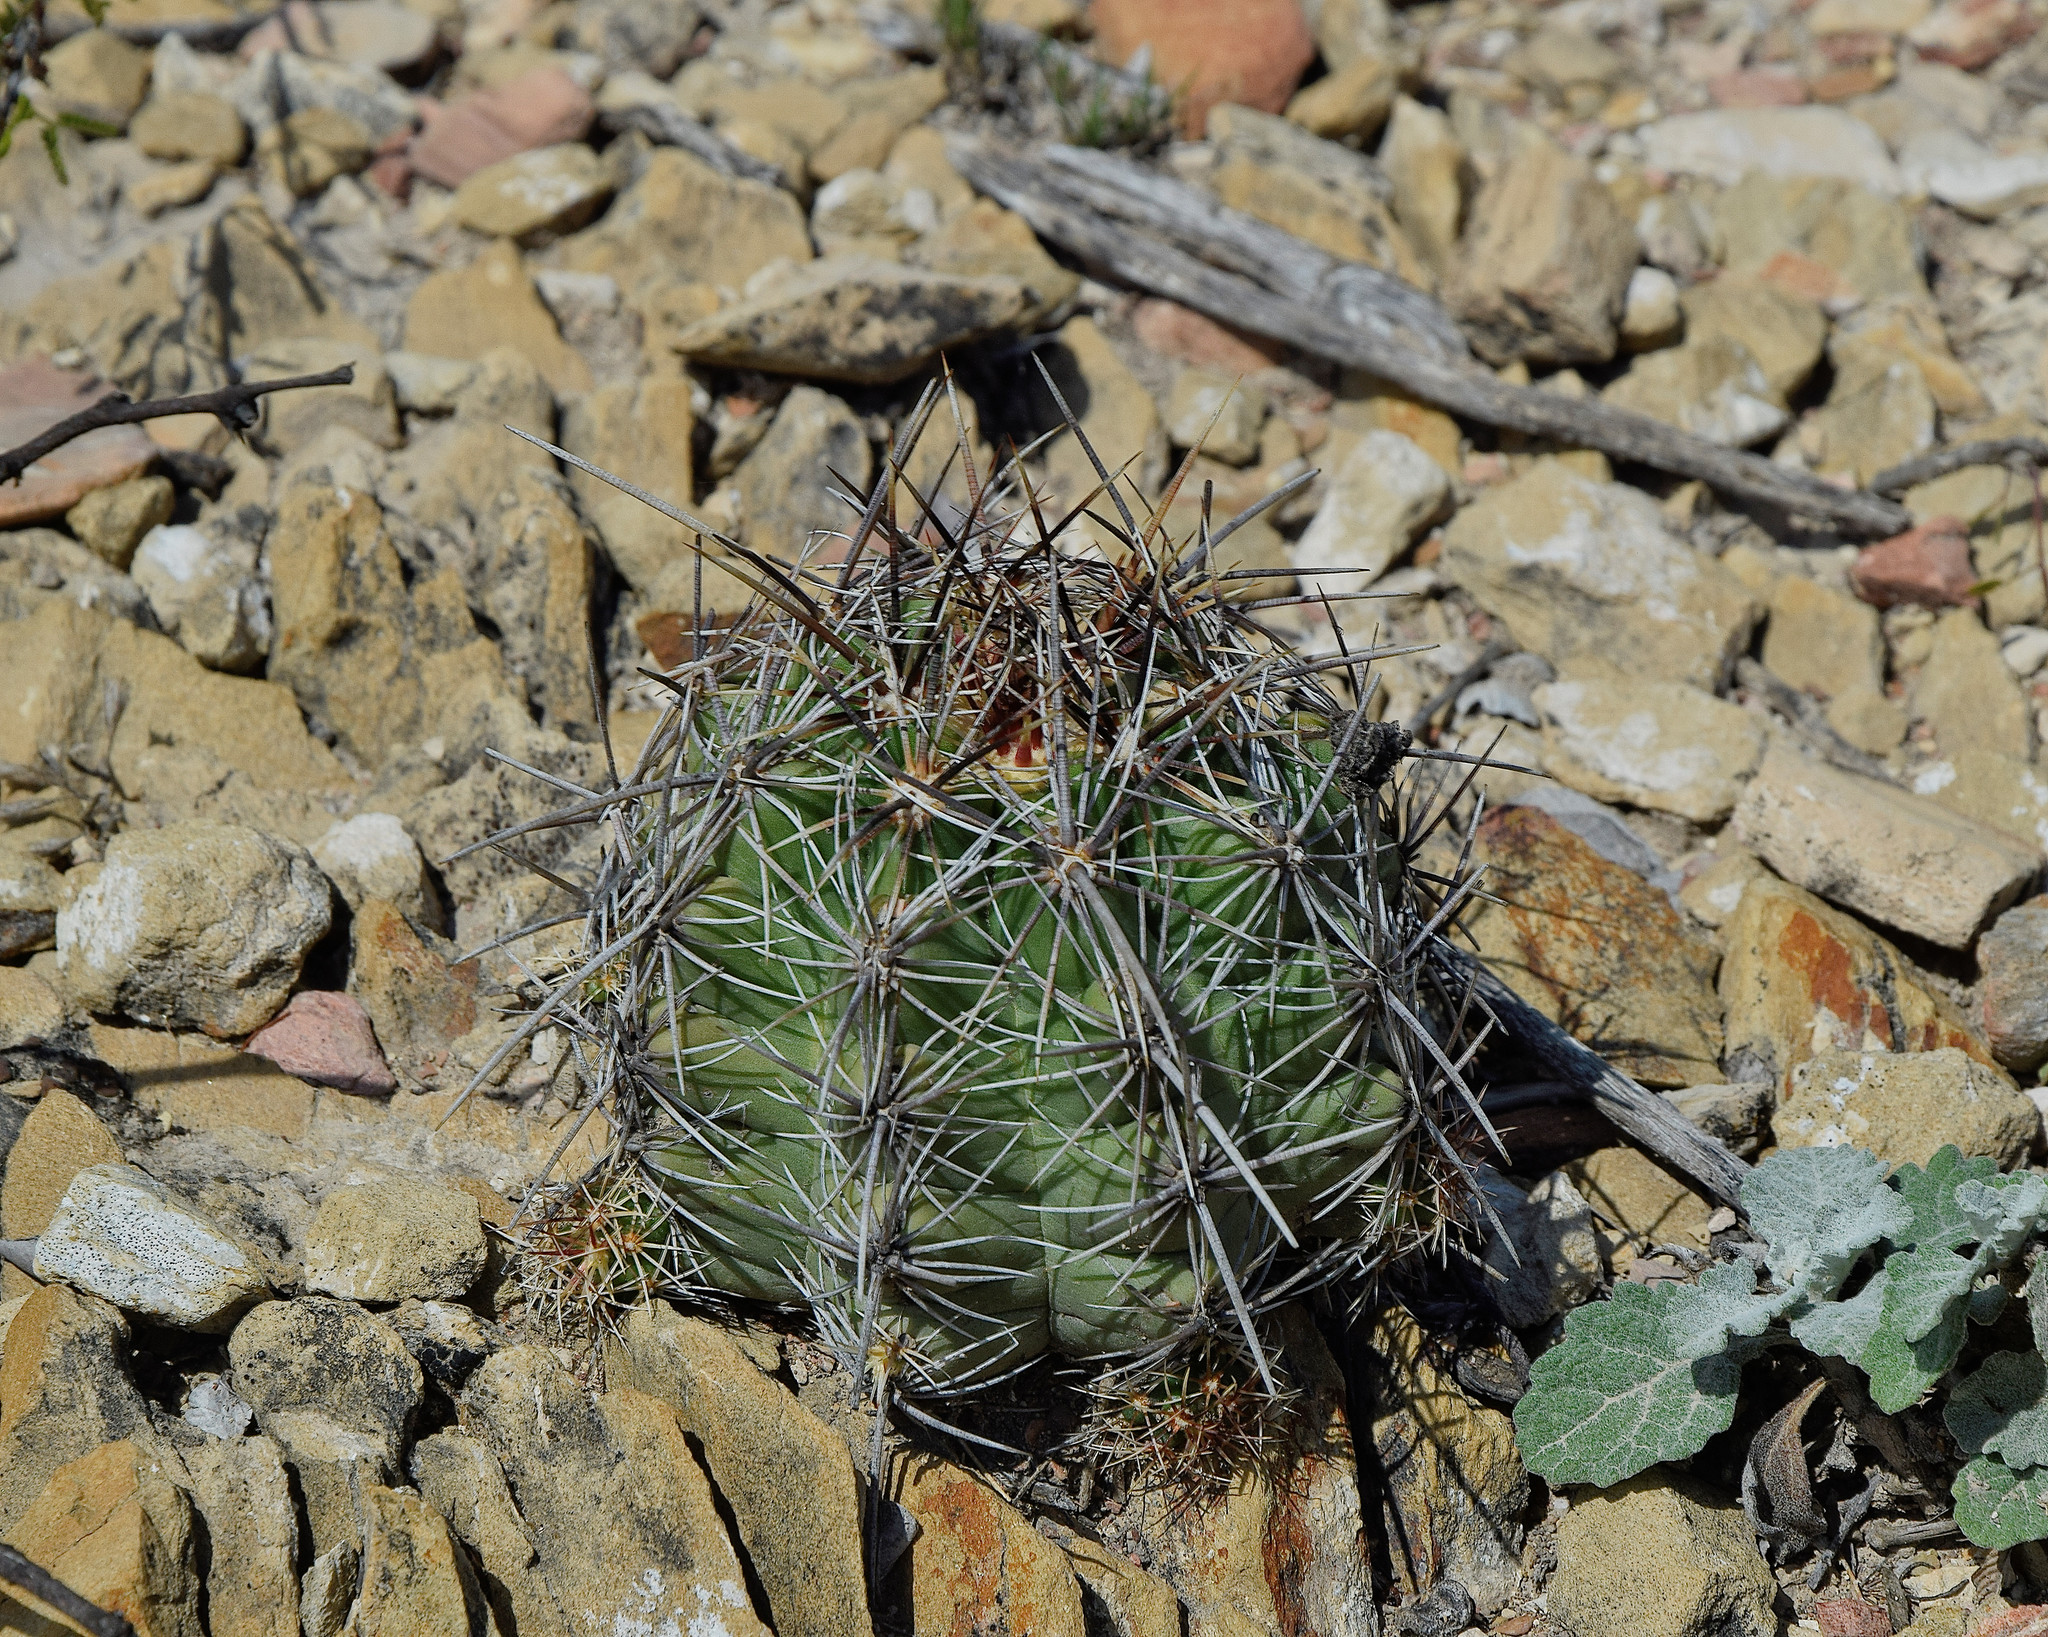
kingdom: Plantae
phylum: Tracheophyta
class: Magnoliopsida
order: Caryophyllales
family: Cactaceae
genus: Thelocactus
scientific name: Thelocactus leucacanthus
